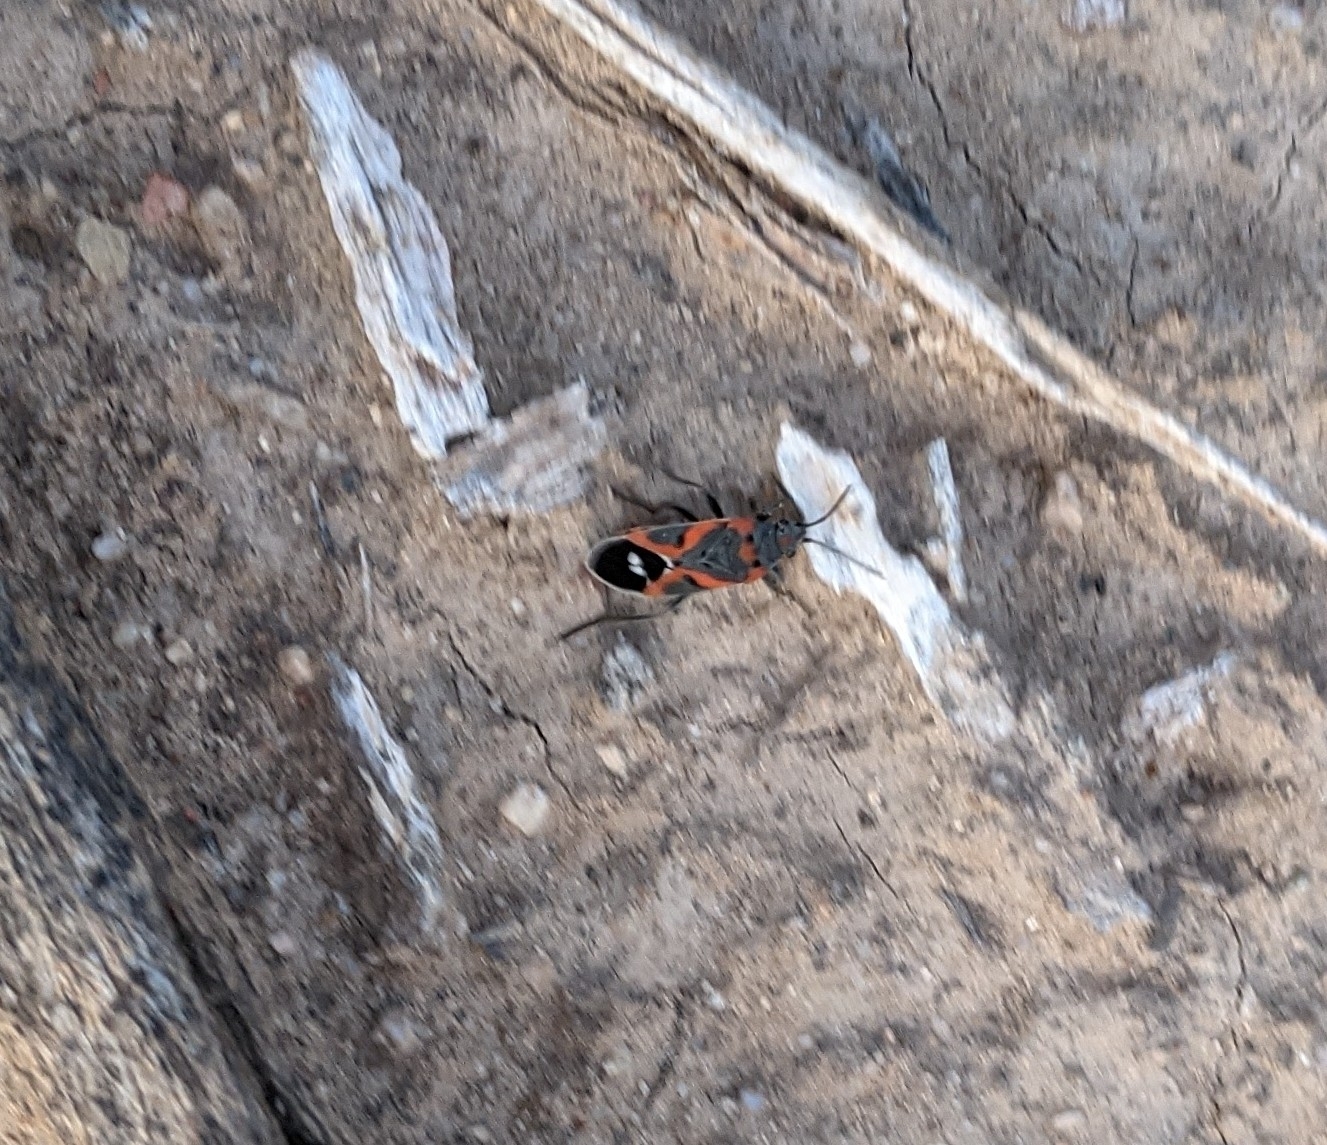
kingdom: Animalia
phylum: Arthropoda
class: Insecta
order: Hemiptera
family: Lygaeidae
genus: Lygaeus
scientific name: Lygaeus kalmii
